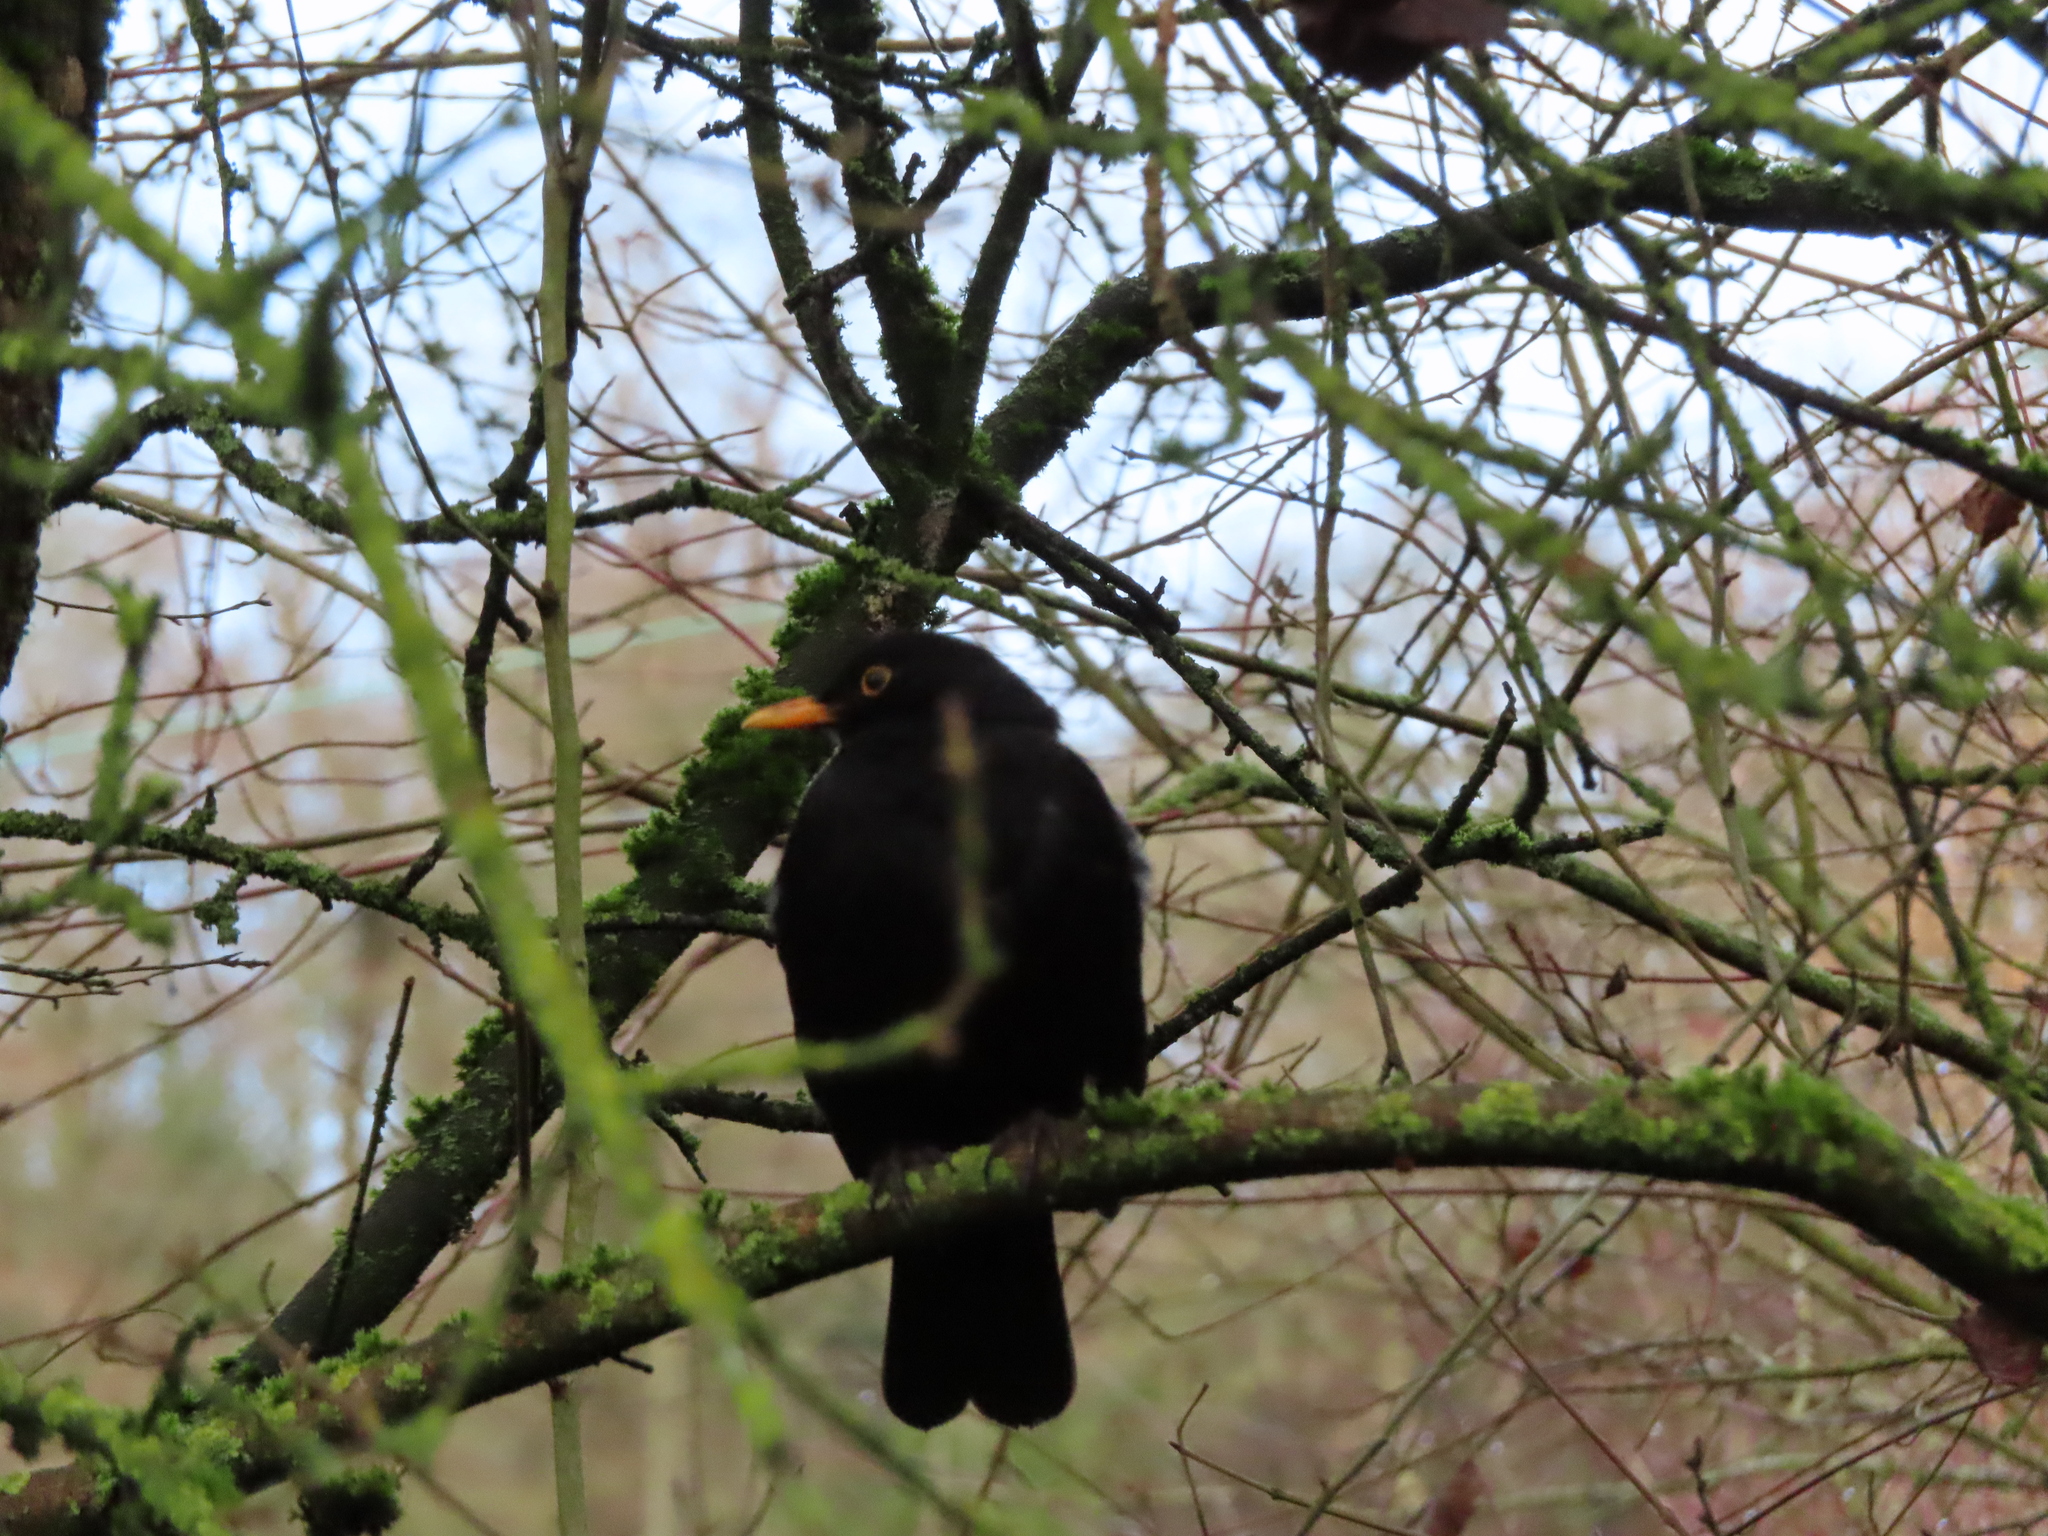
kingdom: Animalia
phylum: Chordata
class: Aves
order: Passeriformes
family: Turdidae
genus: Turdus
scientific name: Turdus merula
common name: Common blackbird
